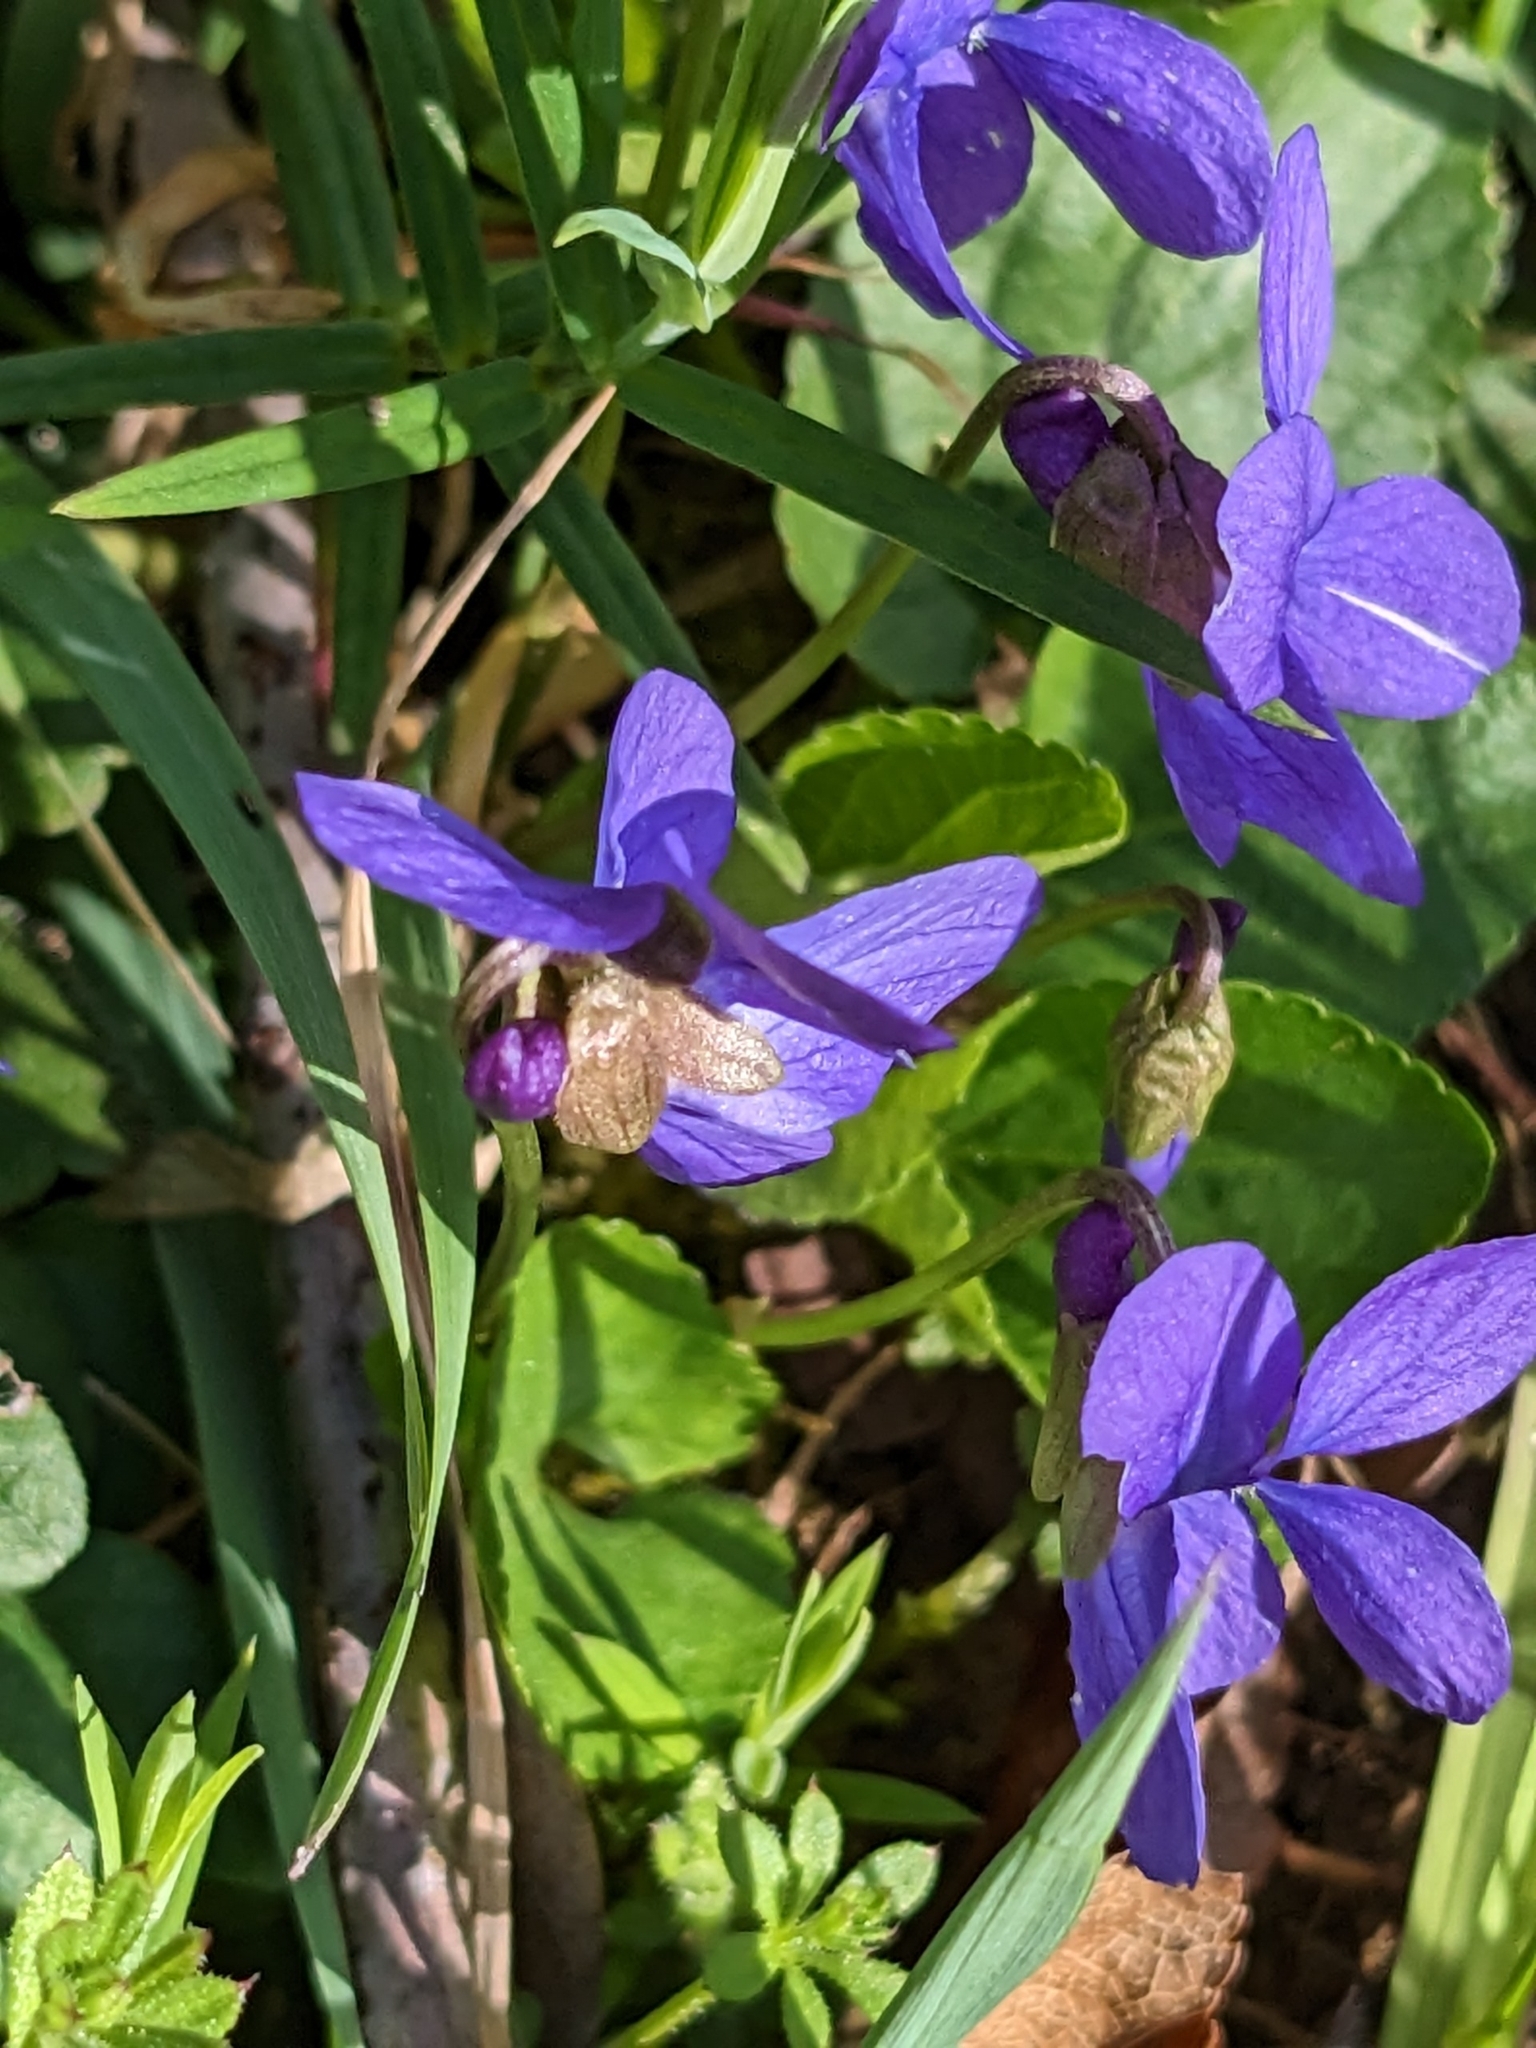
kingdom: Plantae
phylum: Tracheophyta
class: Magnoliopsida
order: Malpighiales
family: Violaceae
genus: Viola
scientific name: Viola hirta
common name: Hairy violet
